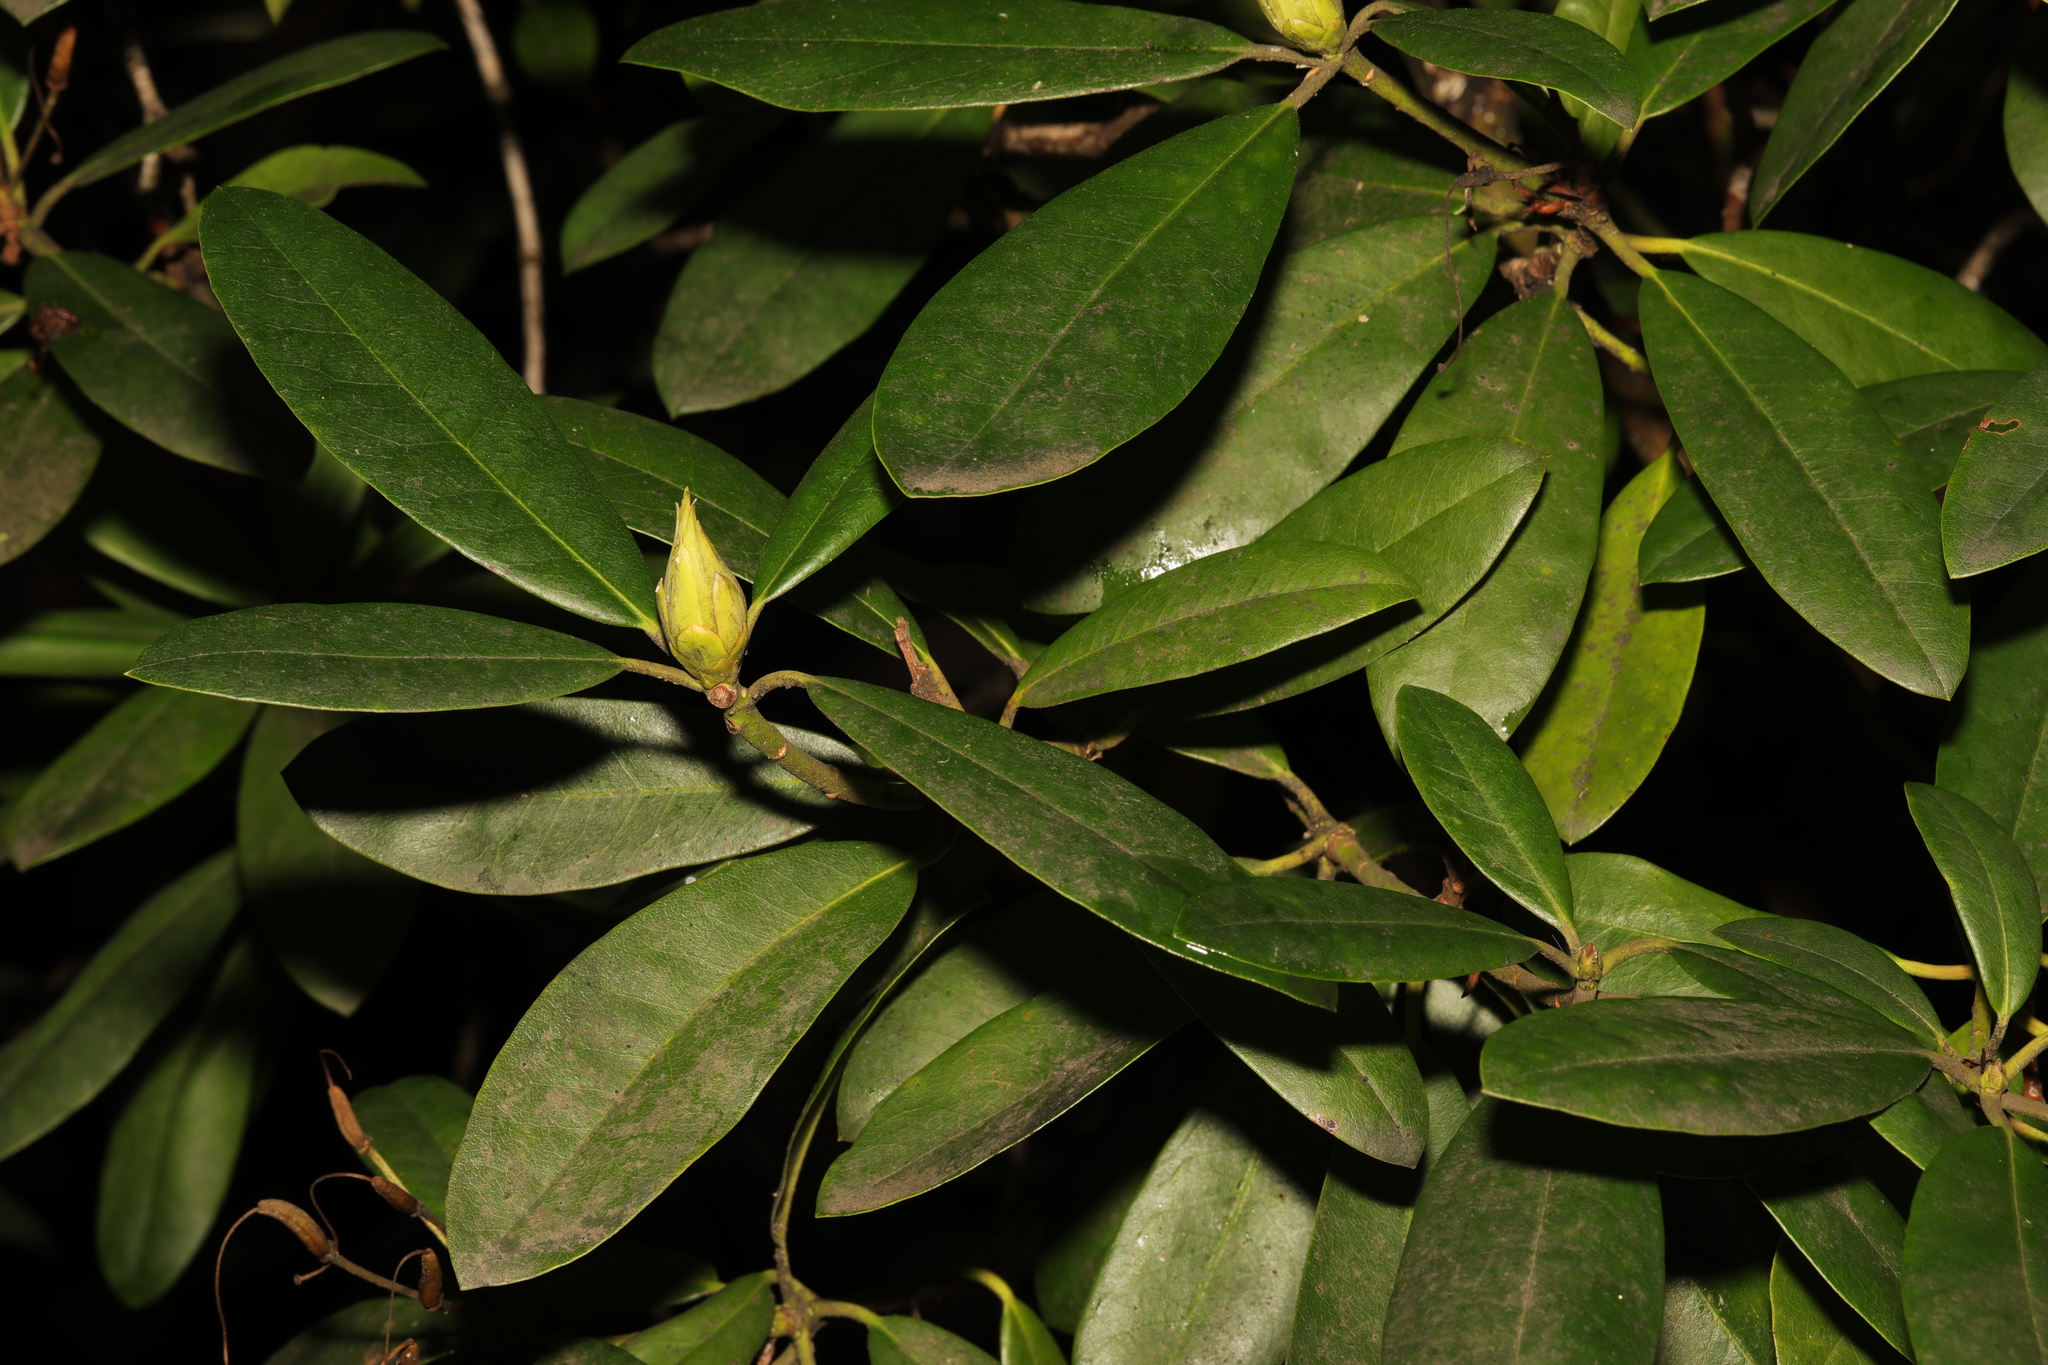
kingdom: Plantae
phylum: Tracheophyta
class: Magnoliopsida
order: Ericales
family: Ericaceae
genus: Rhododendron
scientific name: Rhododendron ponticum
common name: Rhododendron
